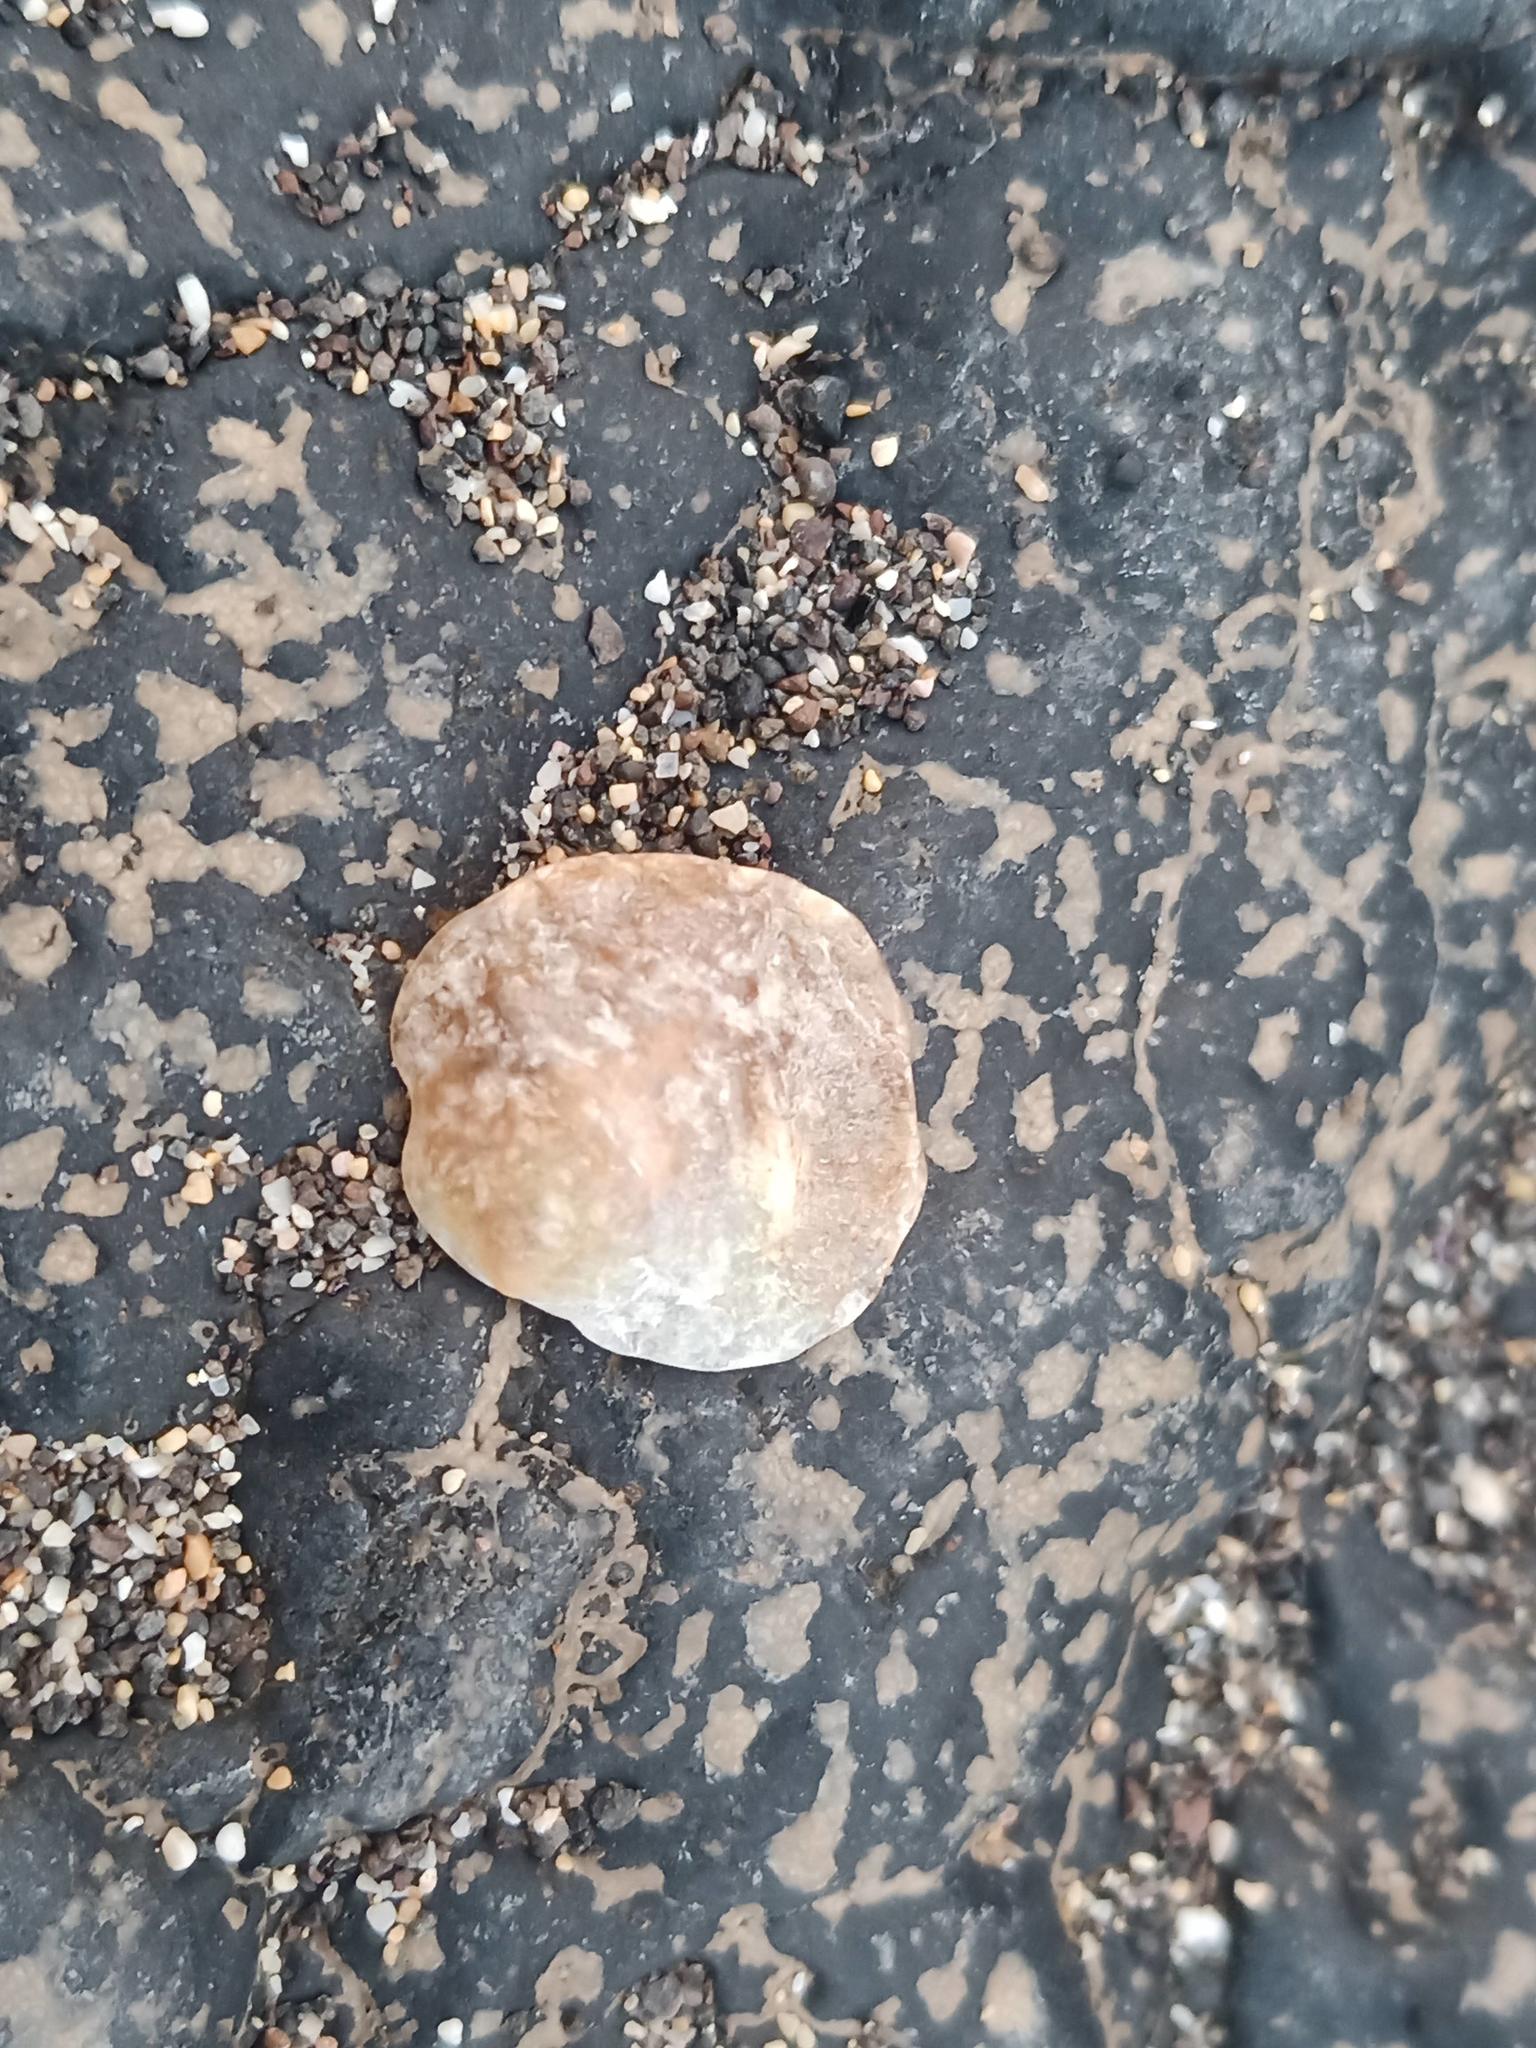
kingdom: Animalia
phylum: Mollusca
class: Bivalvia
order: Pectinida
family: Anomiidae
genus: Anomia
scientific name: Anomia ephippium
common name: Saddle oyster
